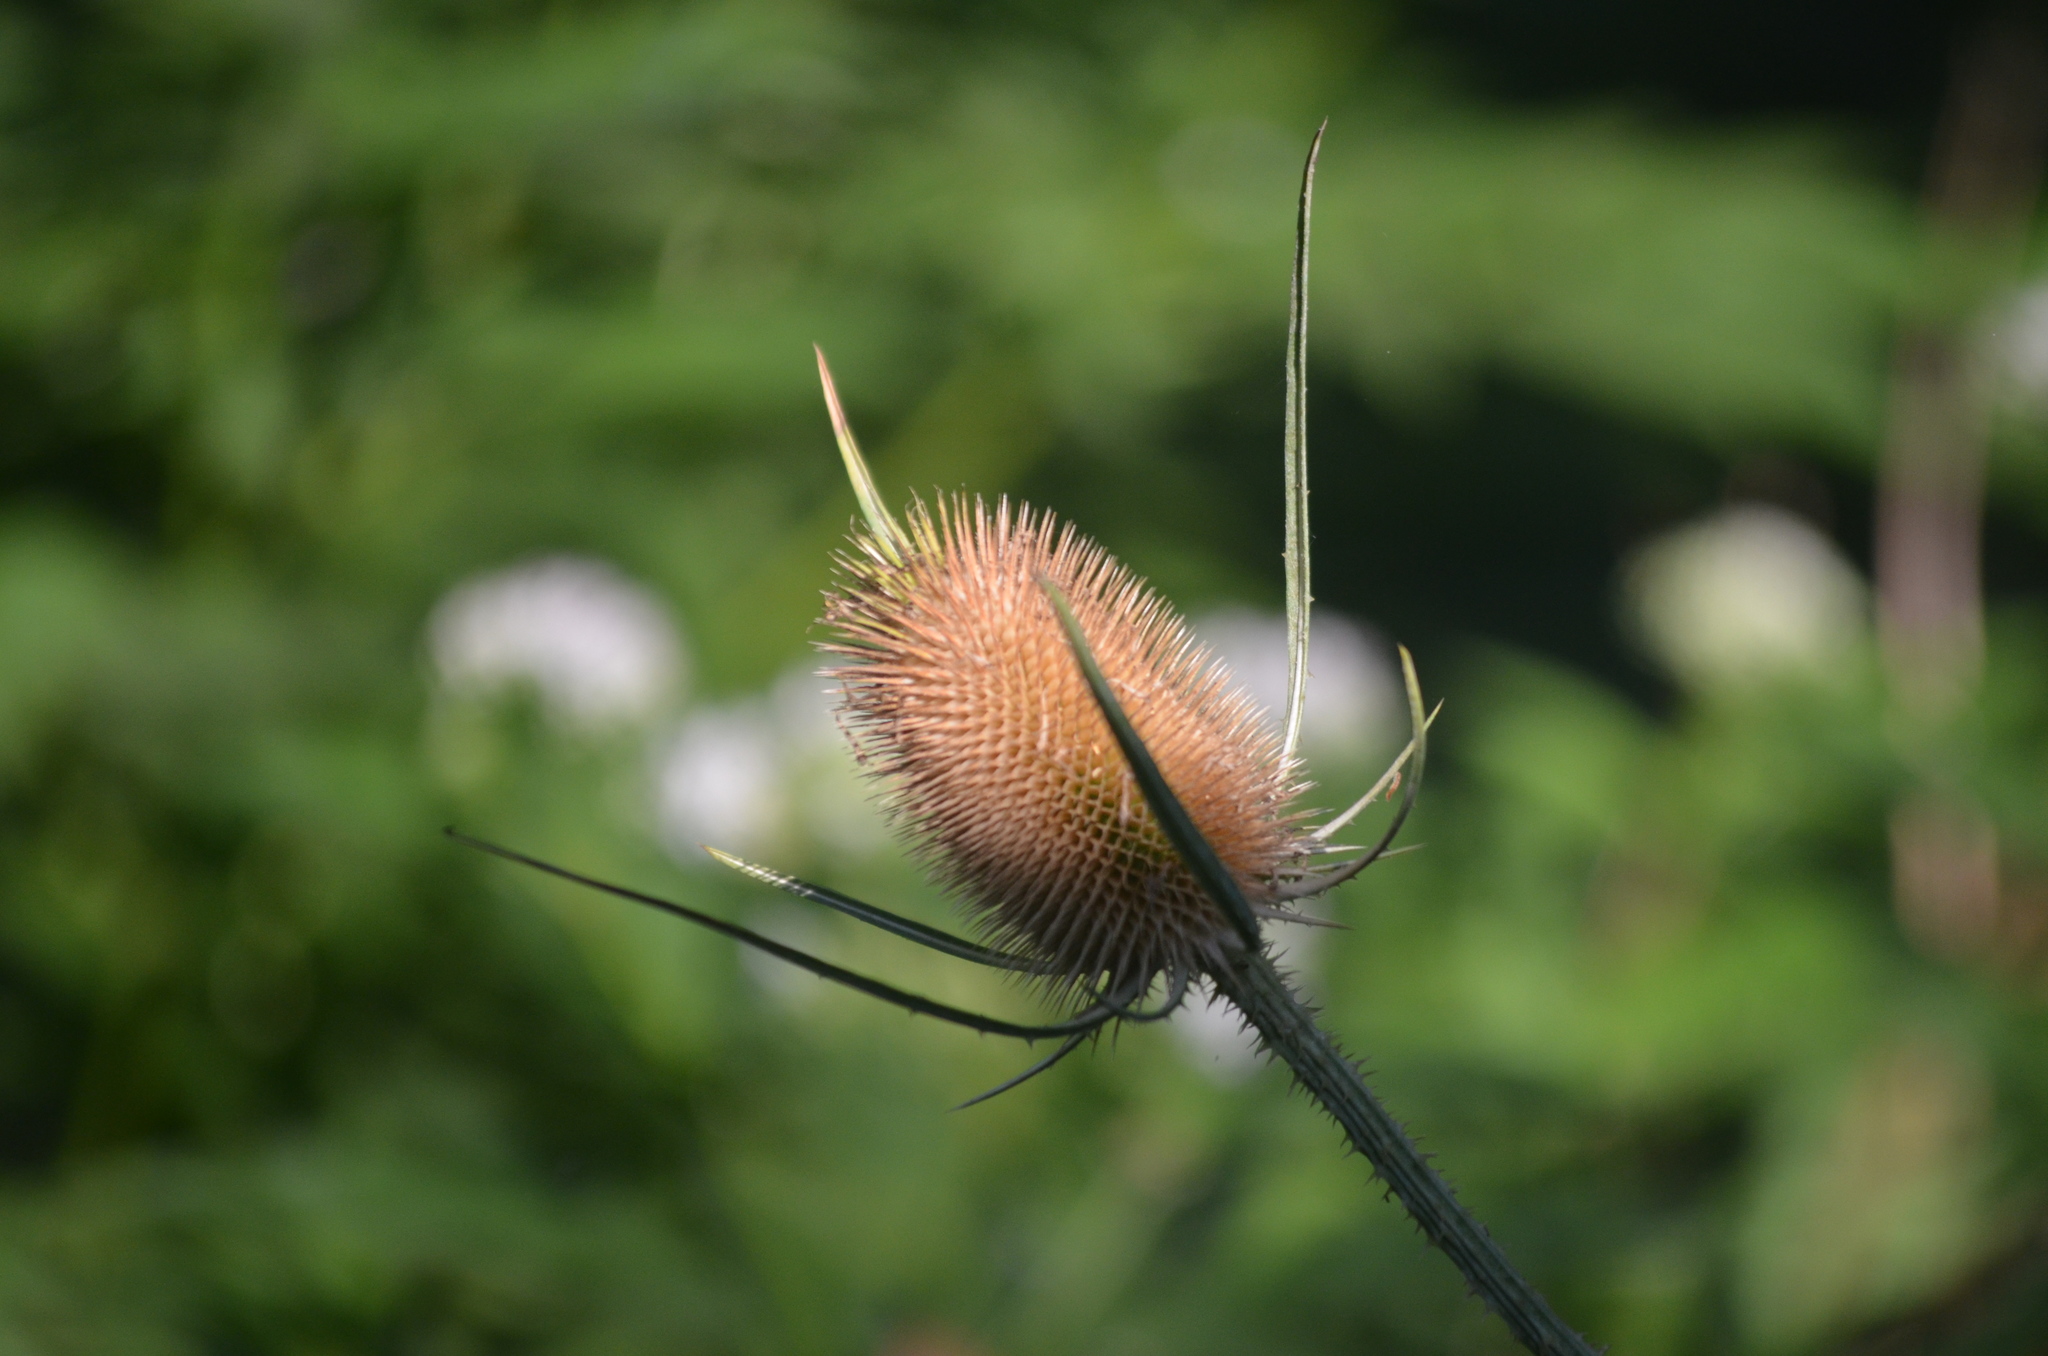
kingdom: Plantae
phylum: Tracheophyta
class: Magnoliopsida
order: Dipsacales
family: Caprifoliaceae
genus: Dipsacus
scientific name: Dipsacus fullonum
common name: Teasel
